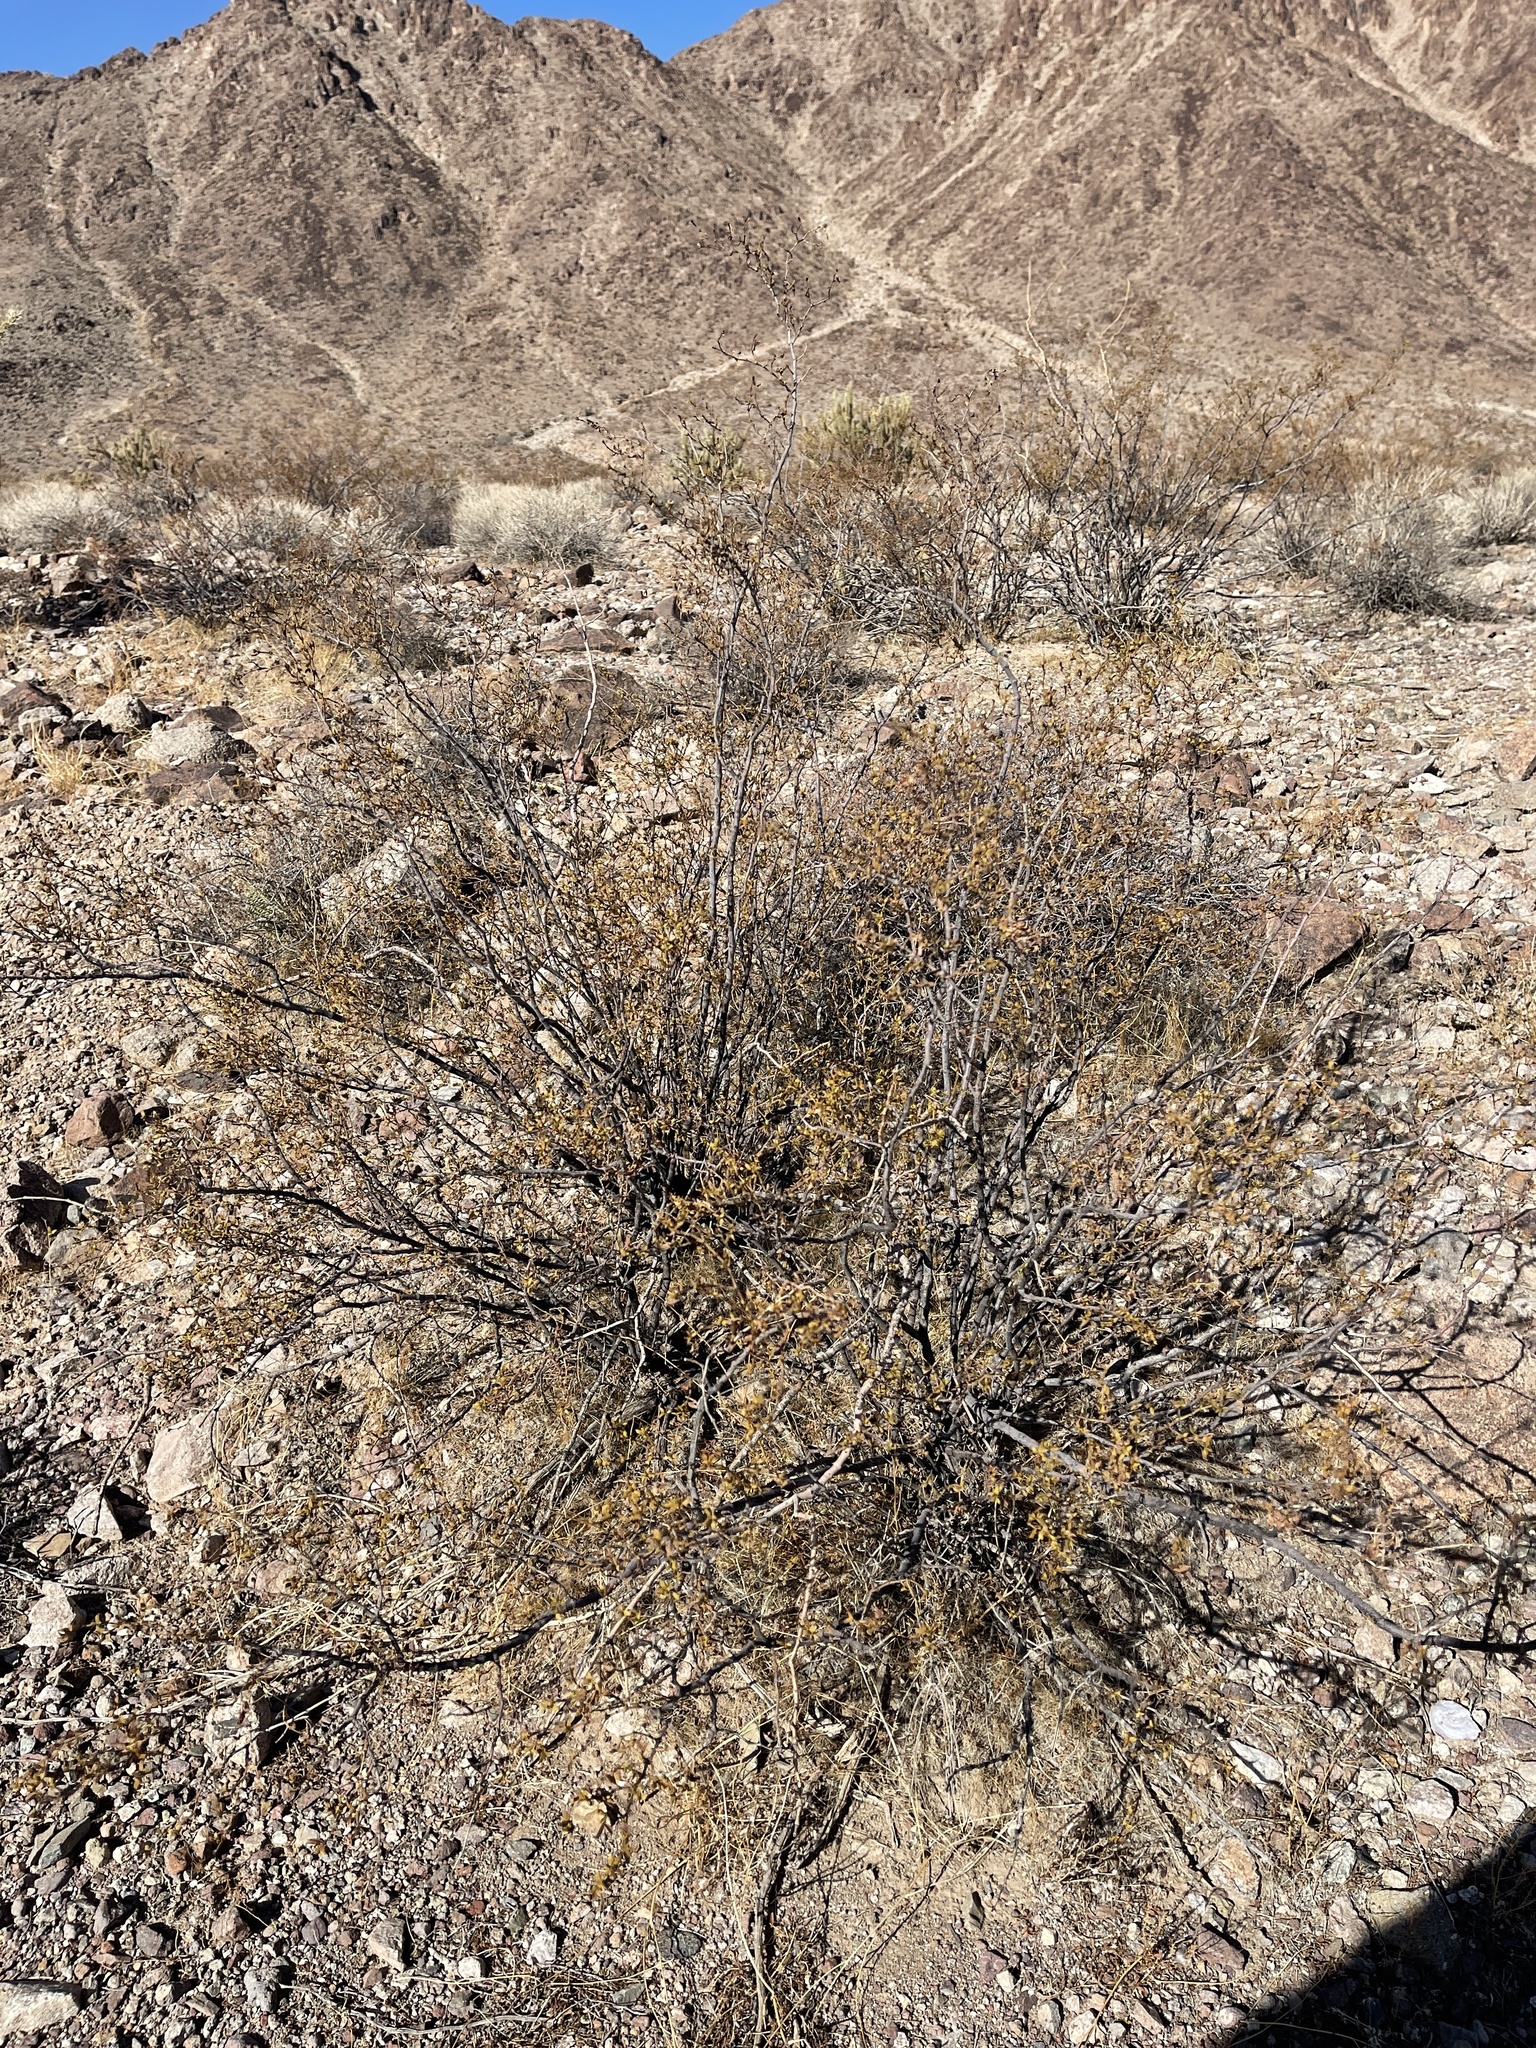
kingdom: Plantae
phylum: Tracheophyta
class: Magnoliopsida
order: Zygophyllales
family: Zygophyllaceae
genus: Larrea
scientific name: Larrea tridentata
